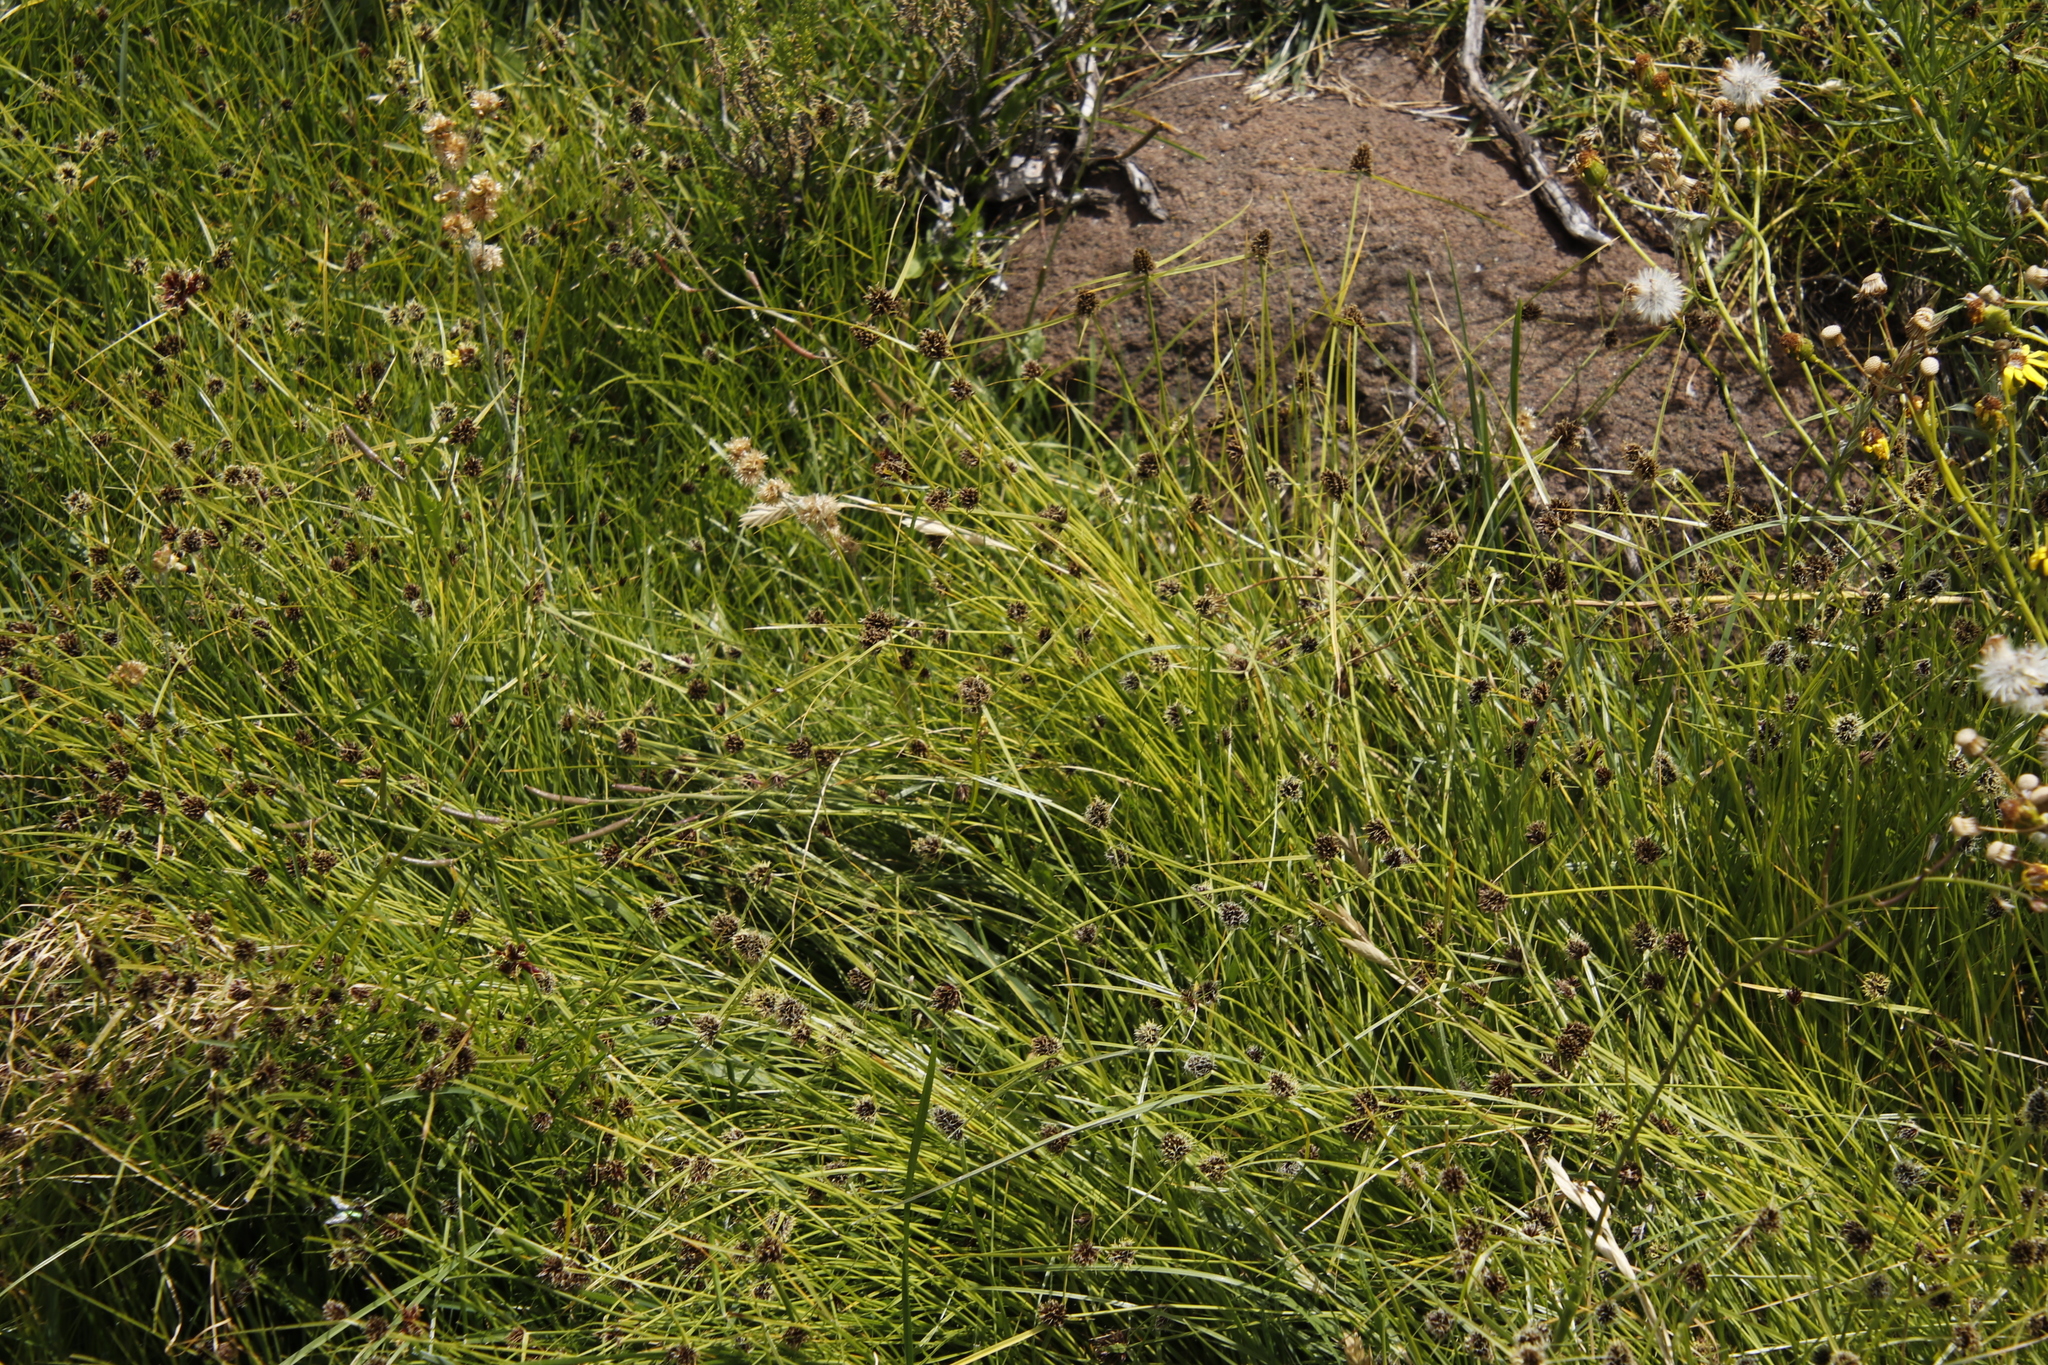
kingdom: Plantae
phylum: Tracheophyta
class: Liliopsida
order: Poales
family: Cyperaceae
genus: Cyperus
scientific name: Cyperus bracheilema
